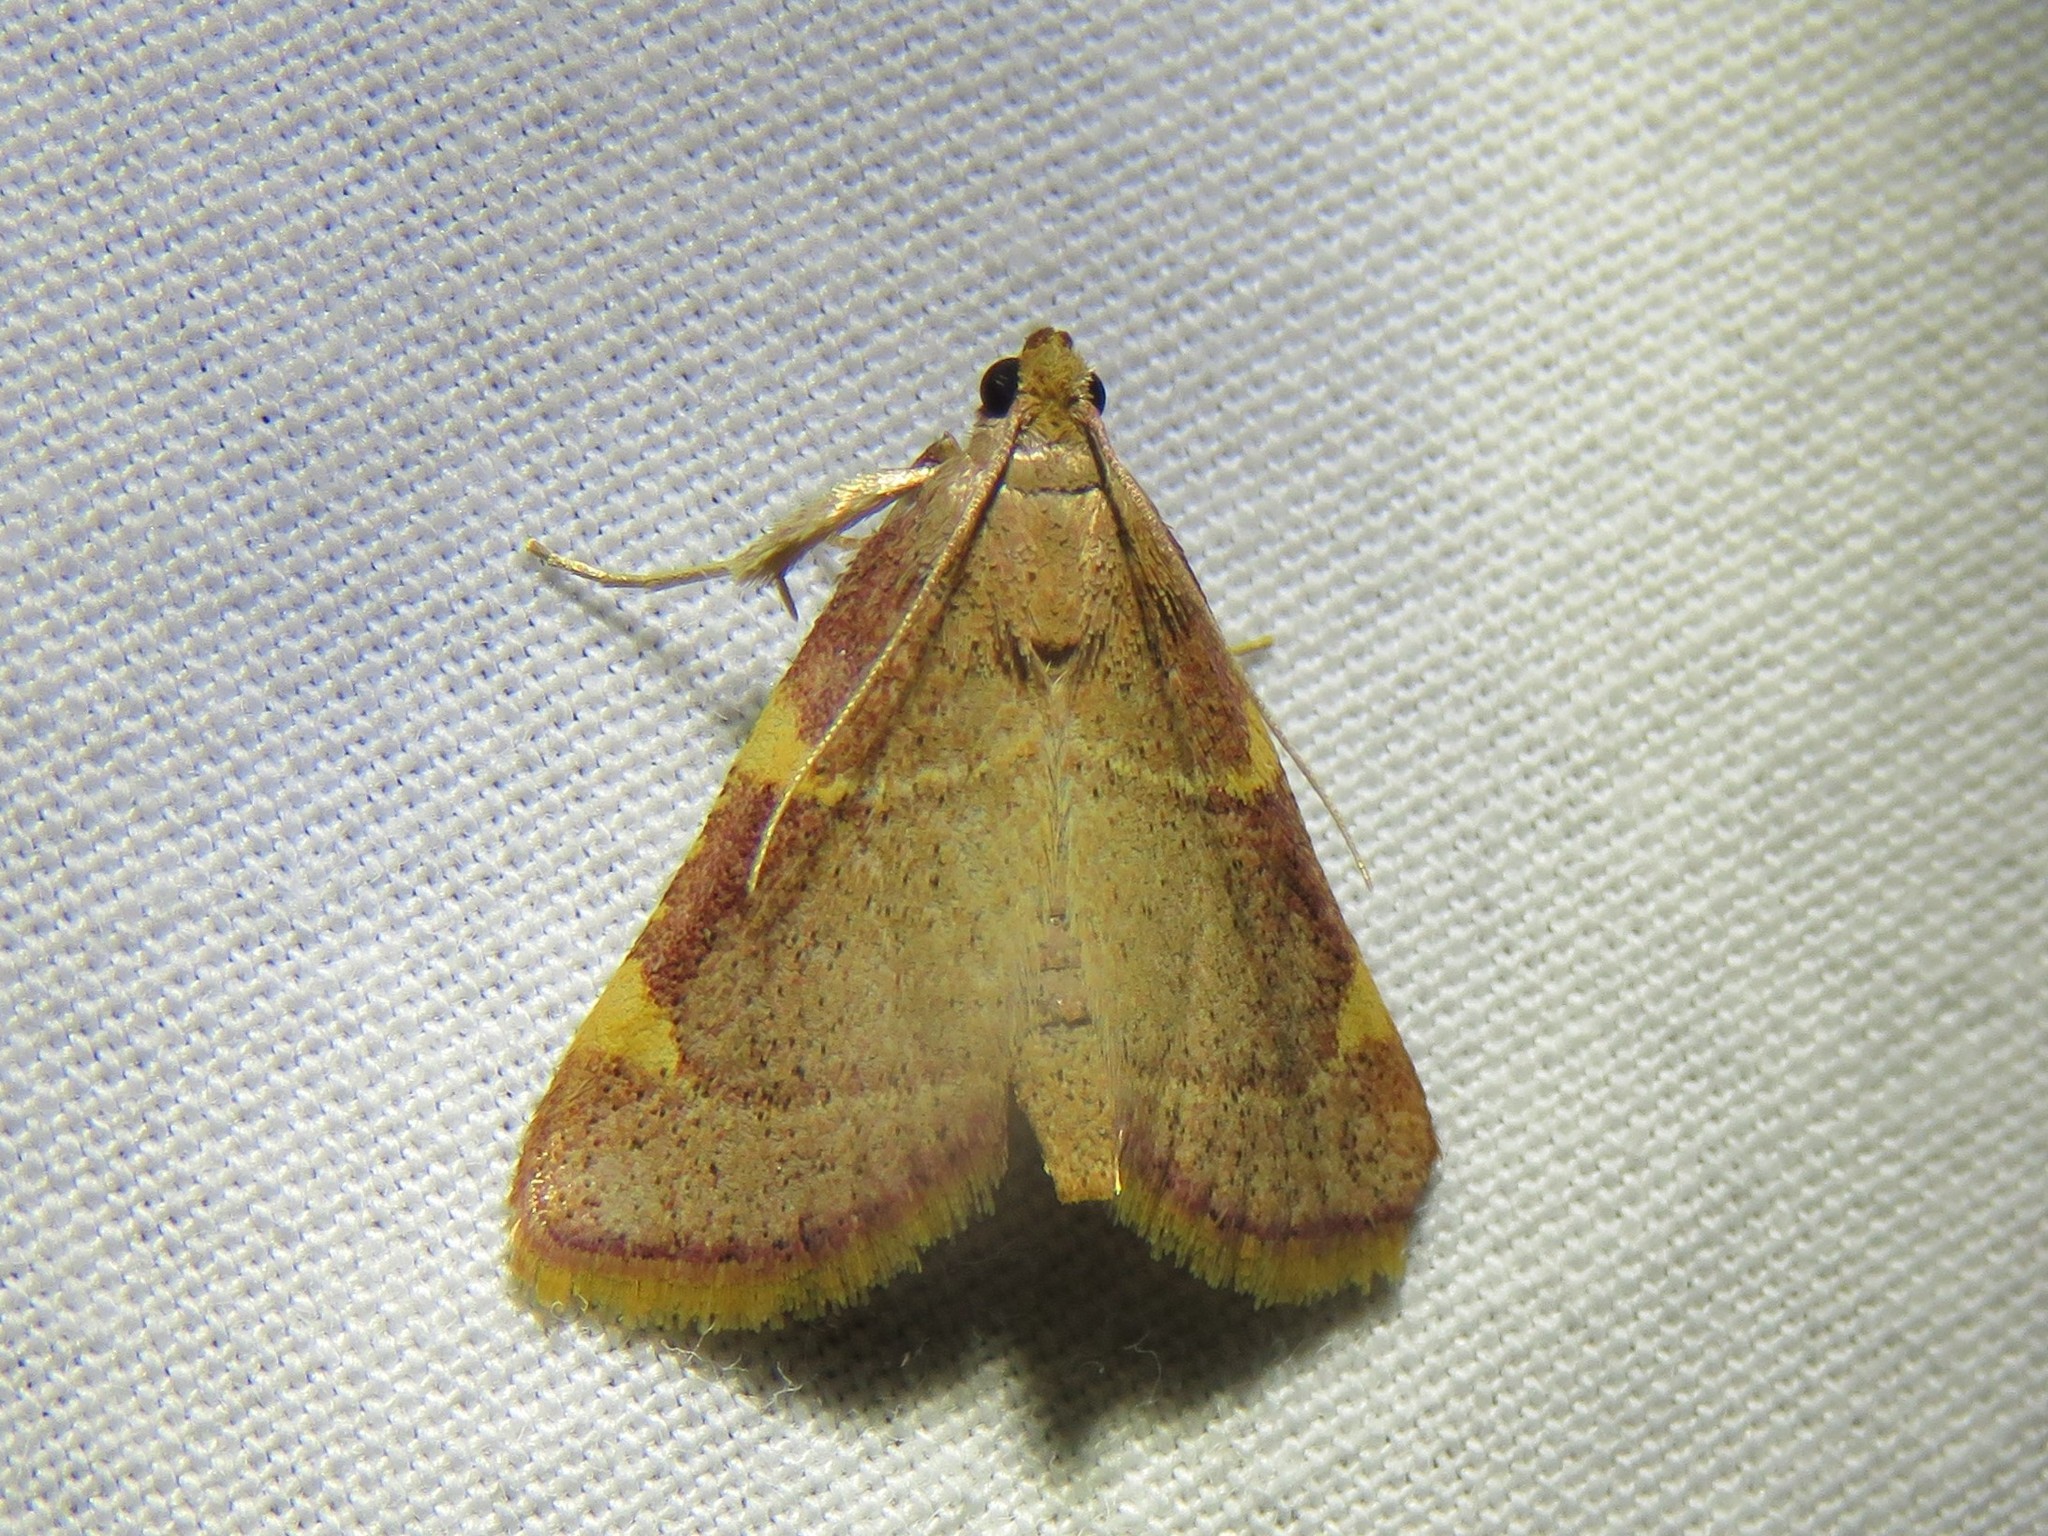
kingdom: Animalia
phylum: Arthropoda
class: Insecta
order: Lepidoptera
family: Pyralidae
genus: Hypsopygia
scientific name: Hypsopygia olinalis
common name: Yellow-fringed dolichomia moth
